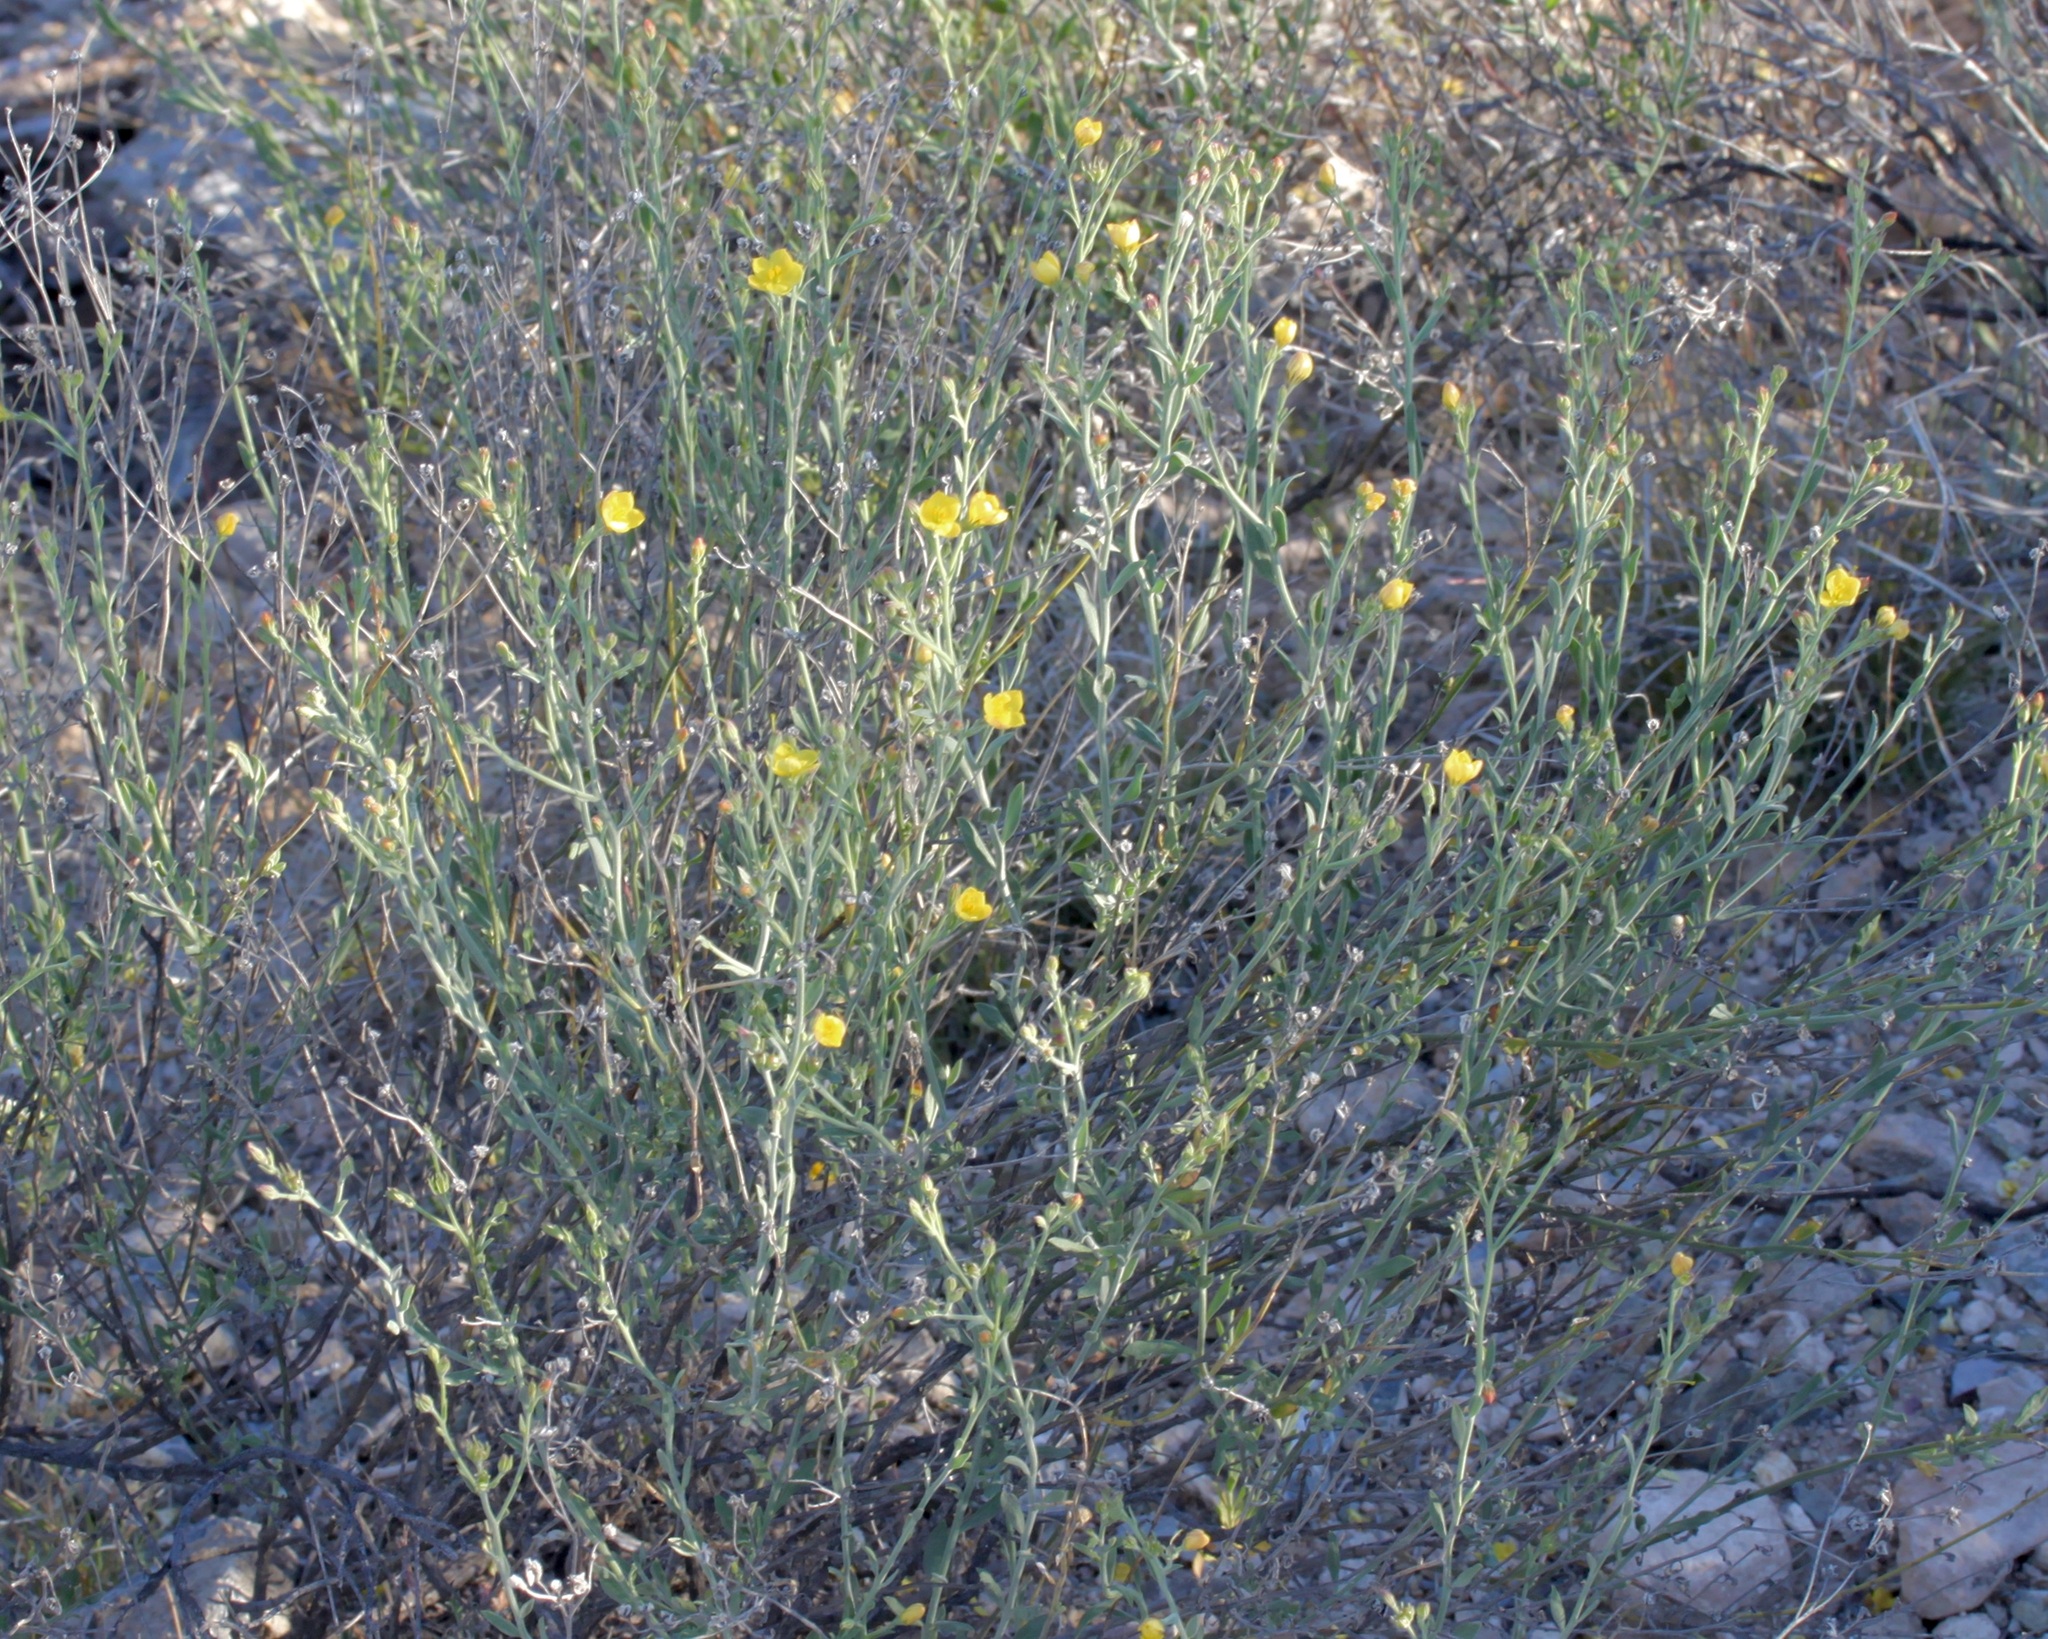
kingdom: Plantae
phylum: Tracheophyta
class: Magnoliopsida
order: Lamiales
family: Oleaceae
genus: Menodora
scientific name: Menodora scabra
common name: Rough menodora
